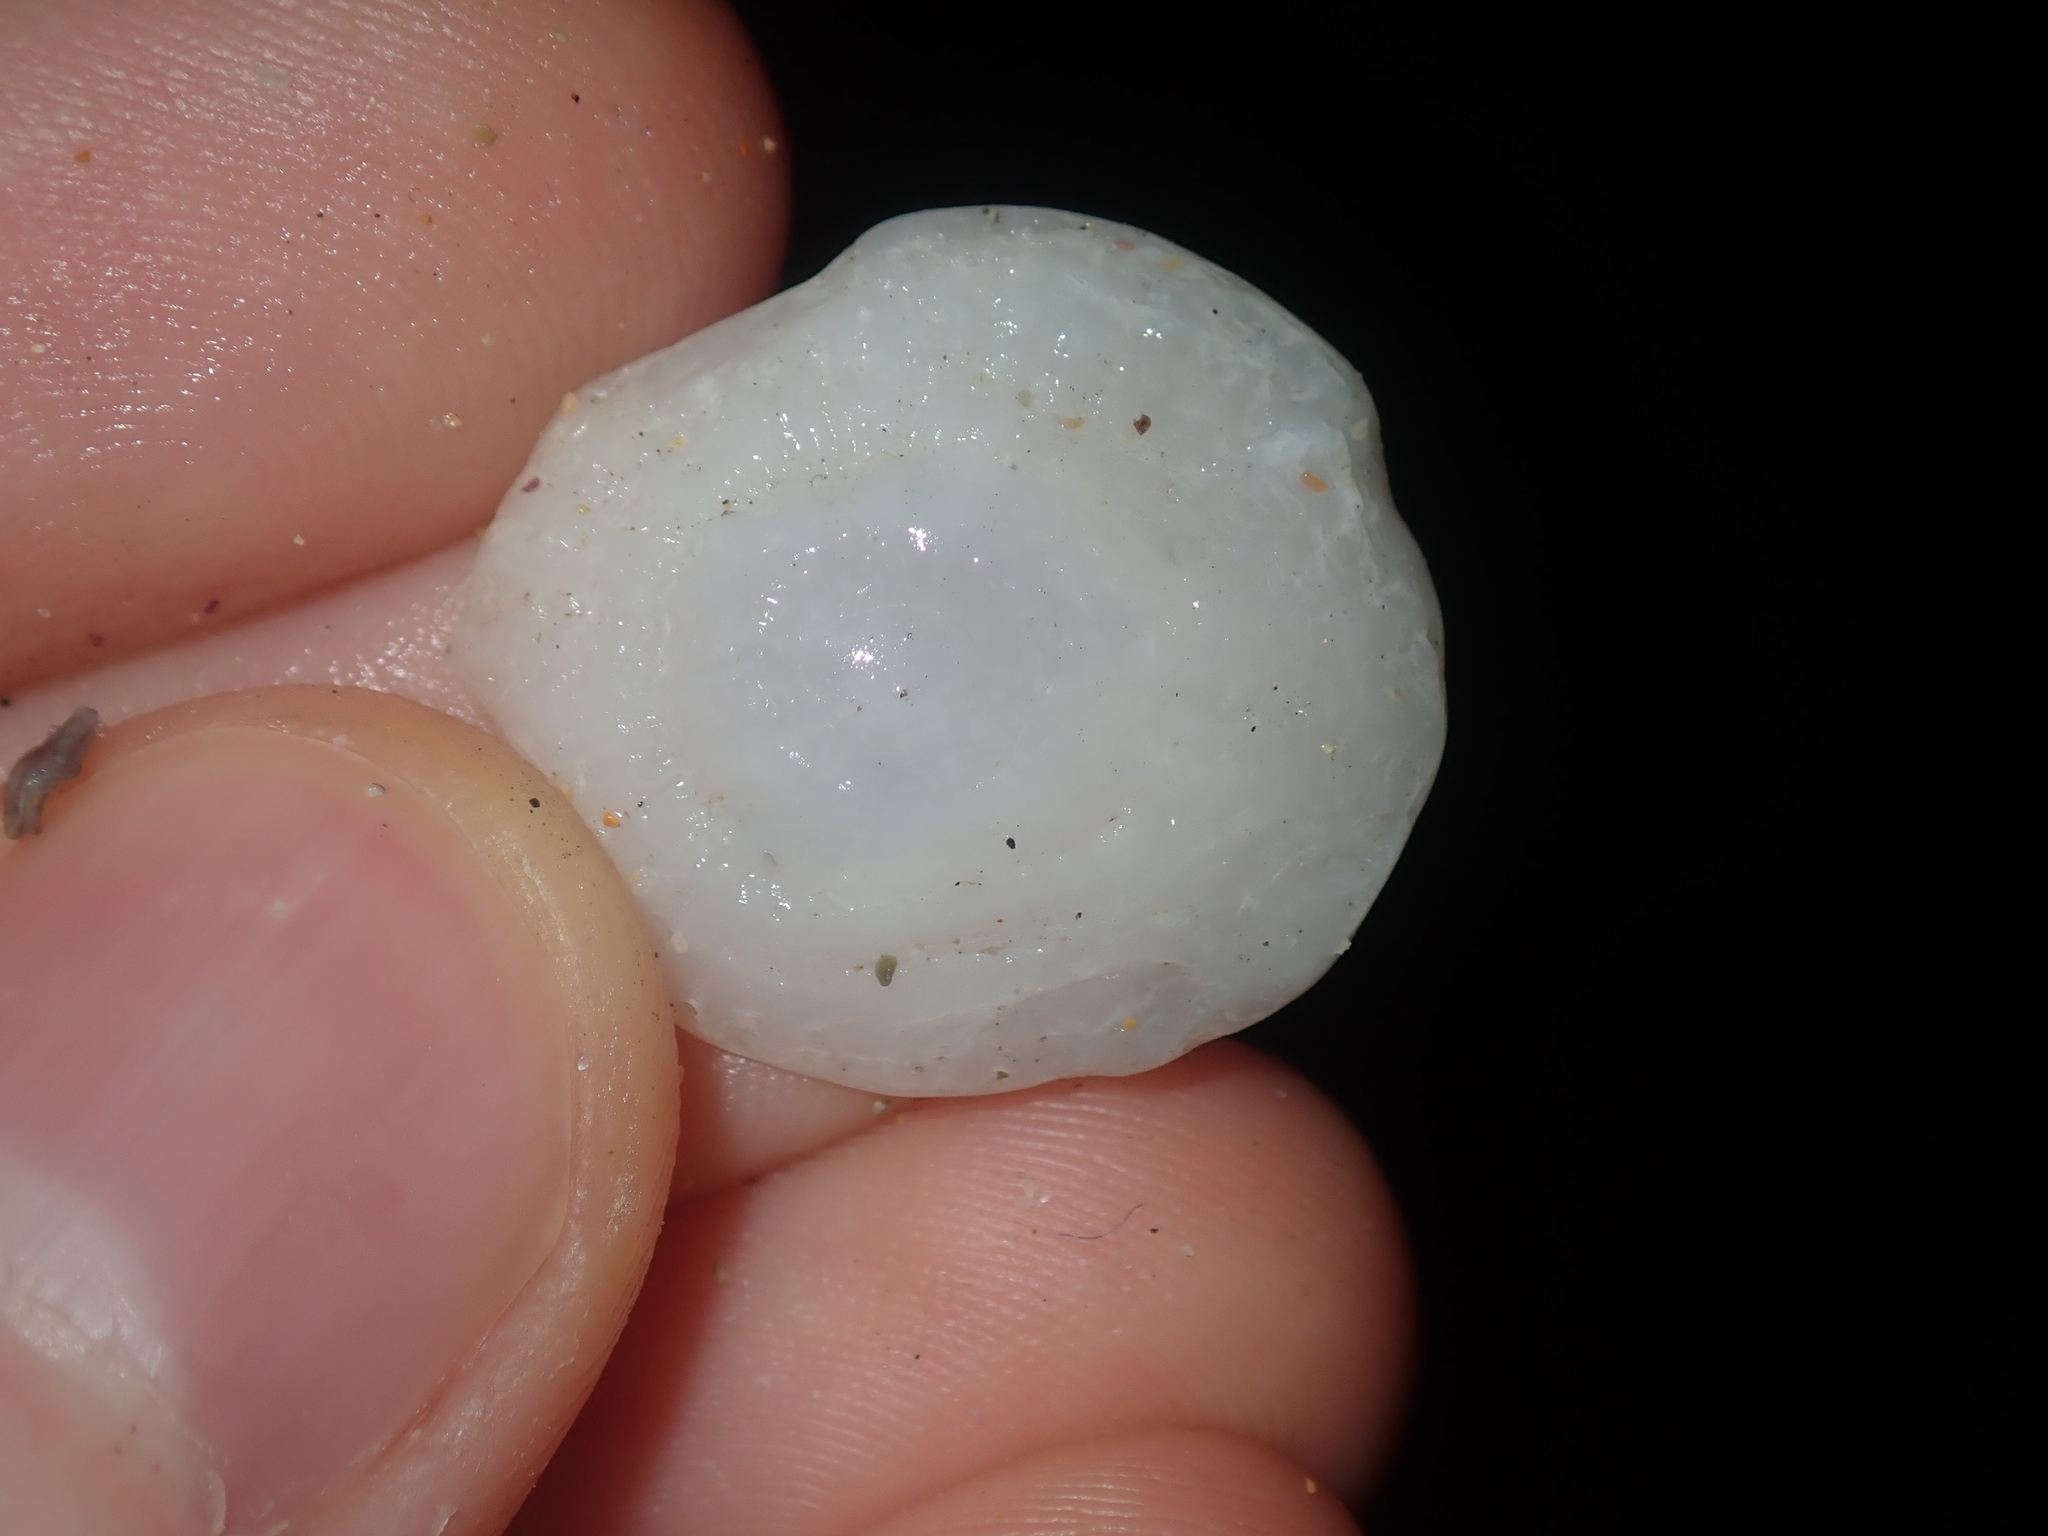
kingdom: Animalia
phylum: Mollusca
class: Gastropoda
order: Ellobiida
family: Trimusculidae
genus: Trimusculus
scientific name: Trimusculus conicus
